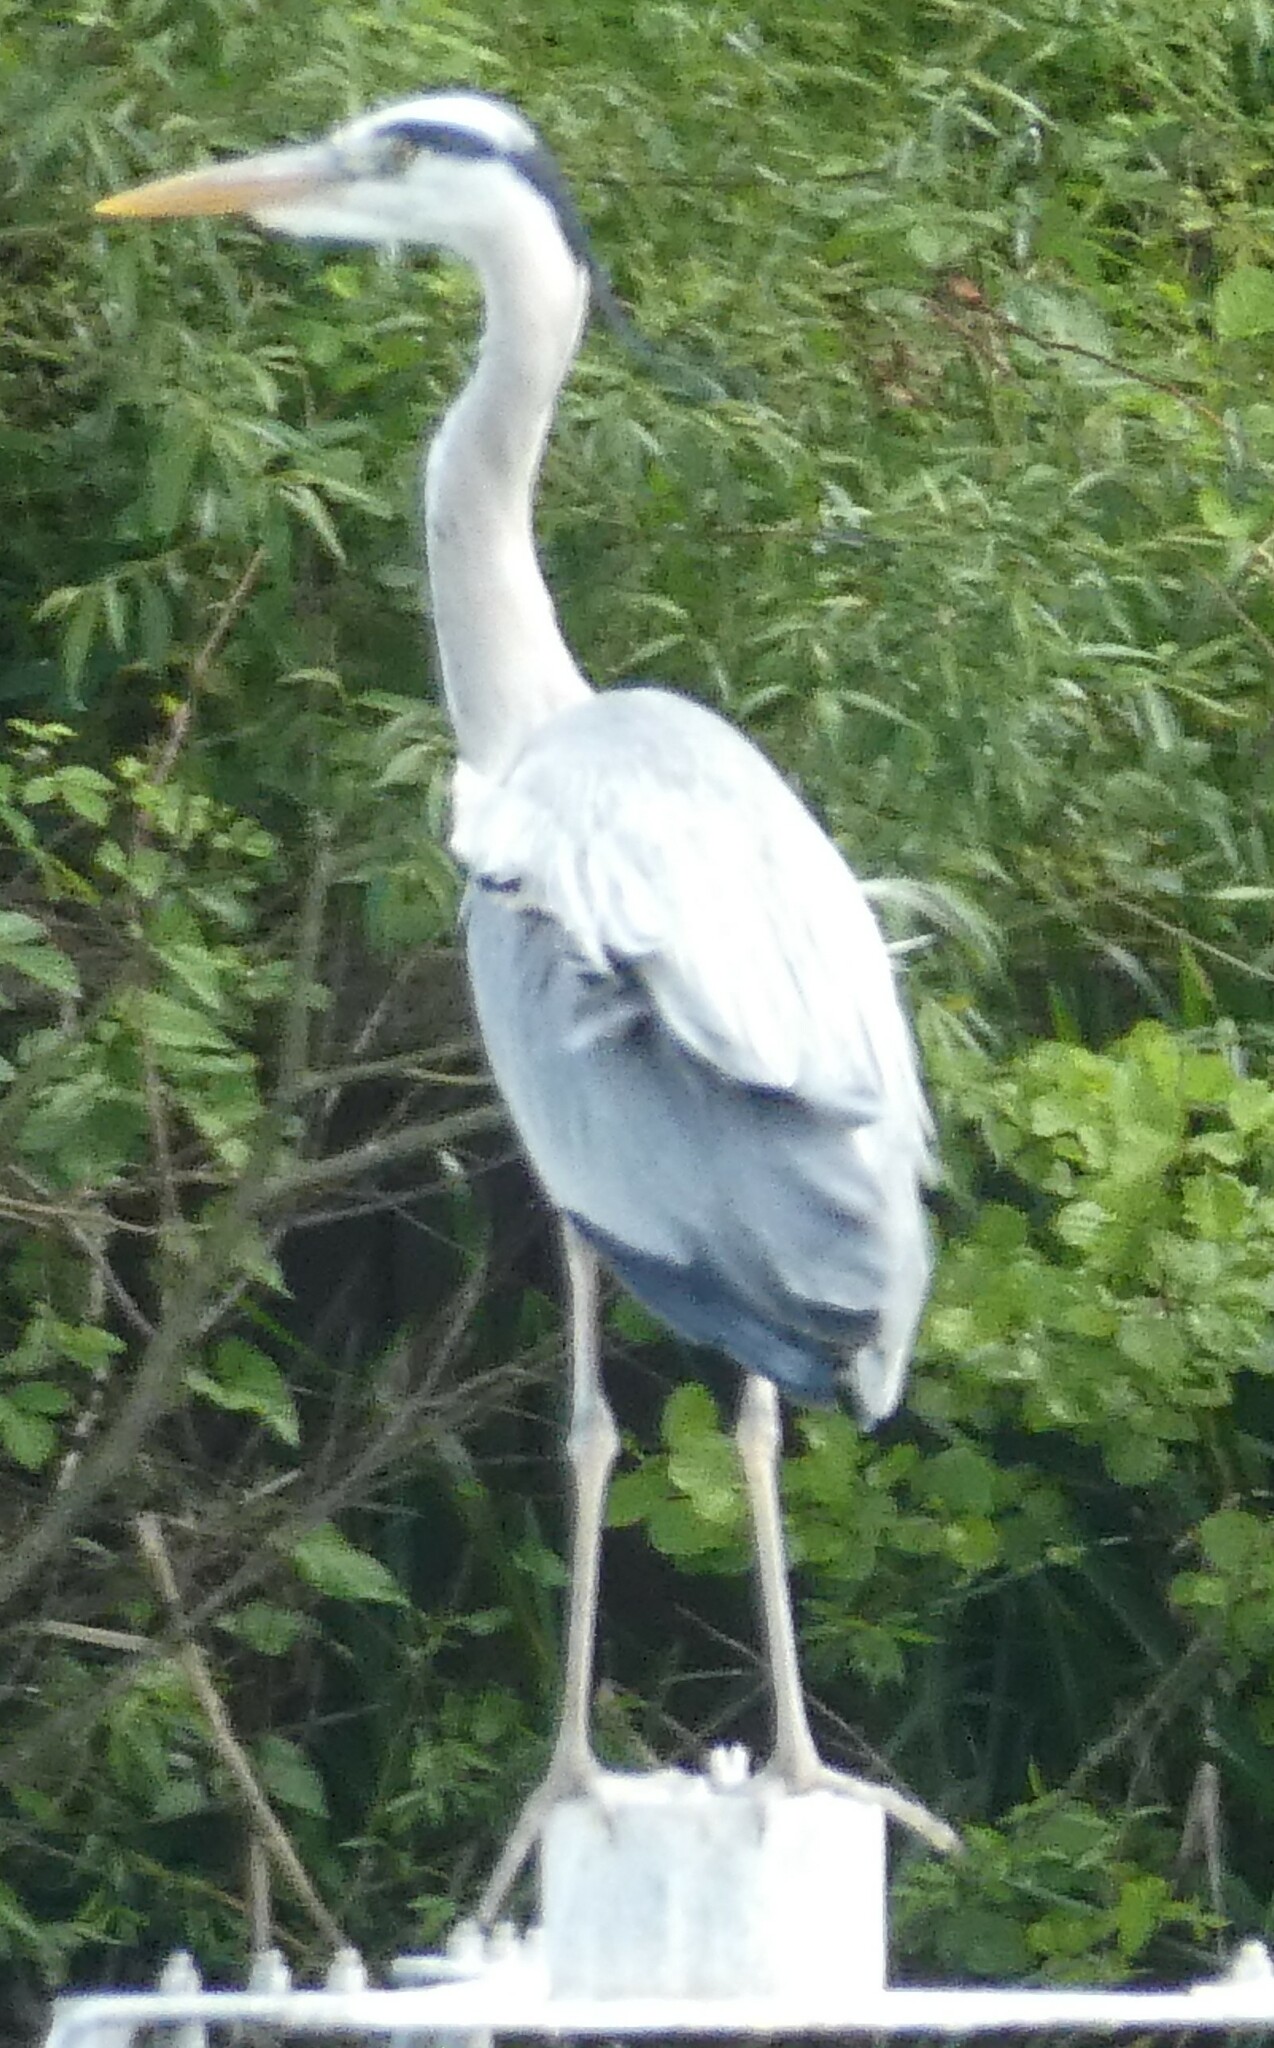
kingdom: Animalia
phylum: Chordata
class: Aves
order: Pelecaniformes
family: Ardeidae
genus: Ardea
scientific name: Ardea cinerea
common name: Grey heron
